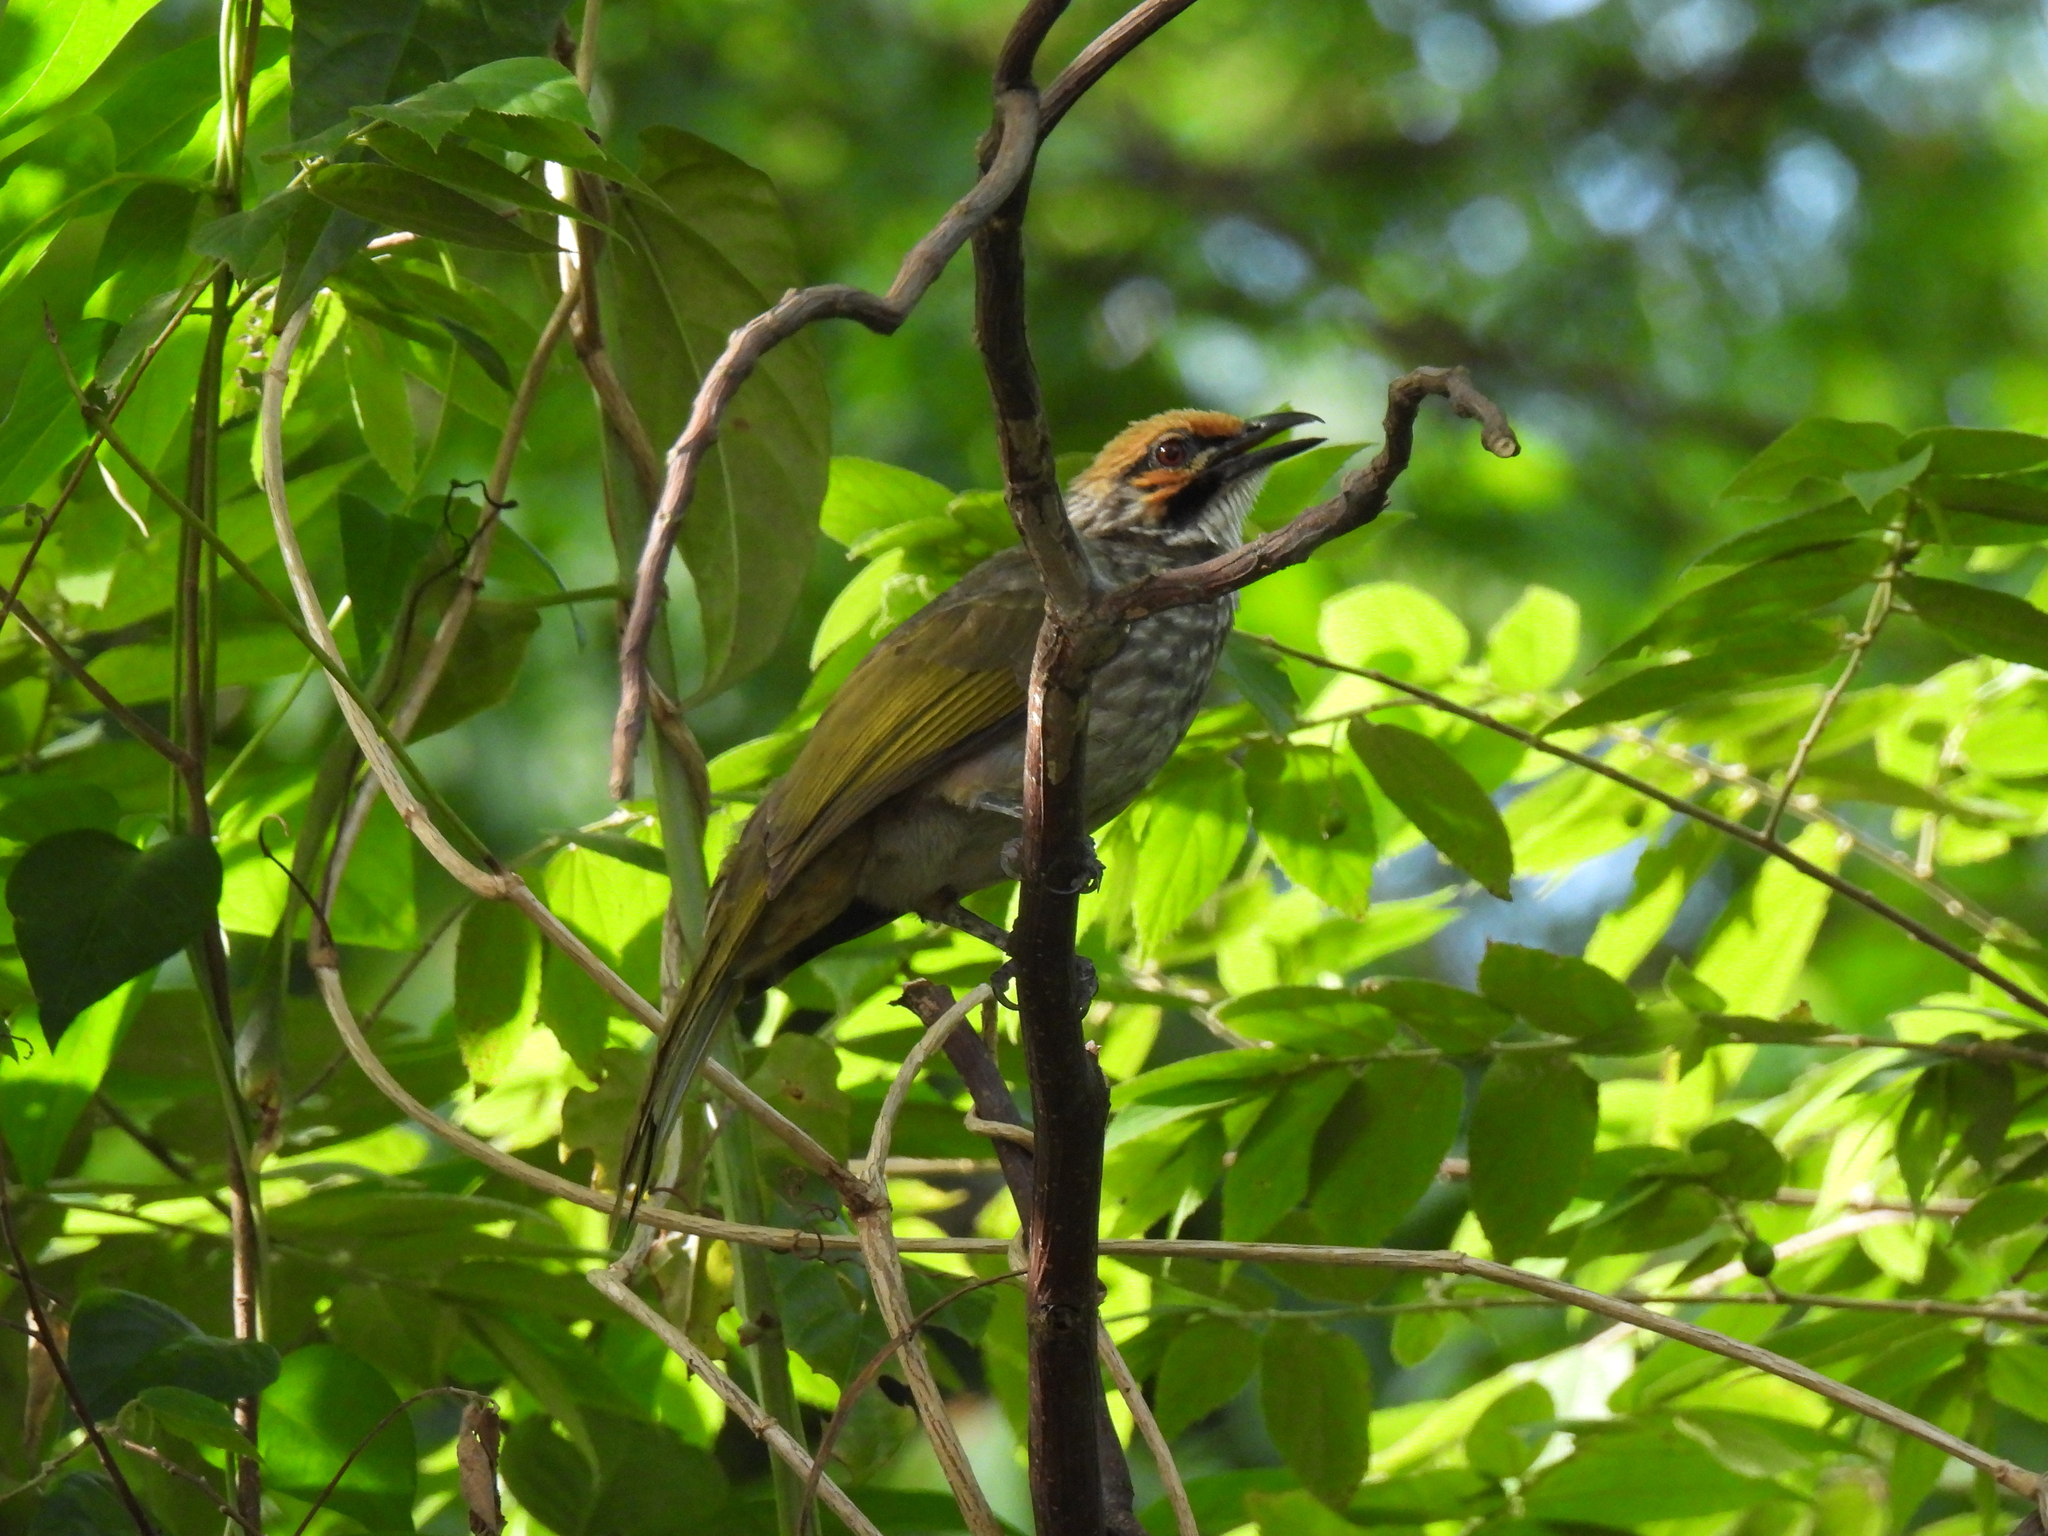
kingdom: Animalia
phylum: Chordata
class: Aves
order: Passeriformes
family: Pycnonotidae
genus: Pycnonotus
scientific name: Pycnonotus zeylanicus
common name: Straw-headed bulbul
